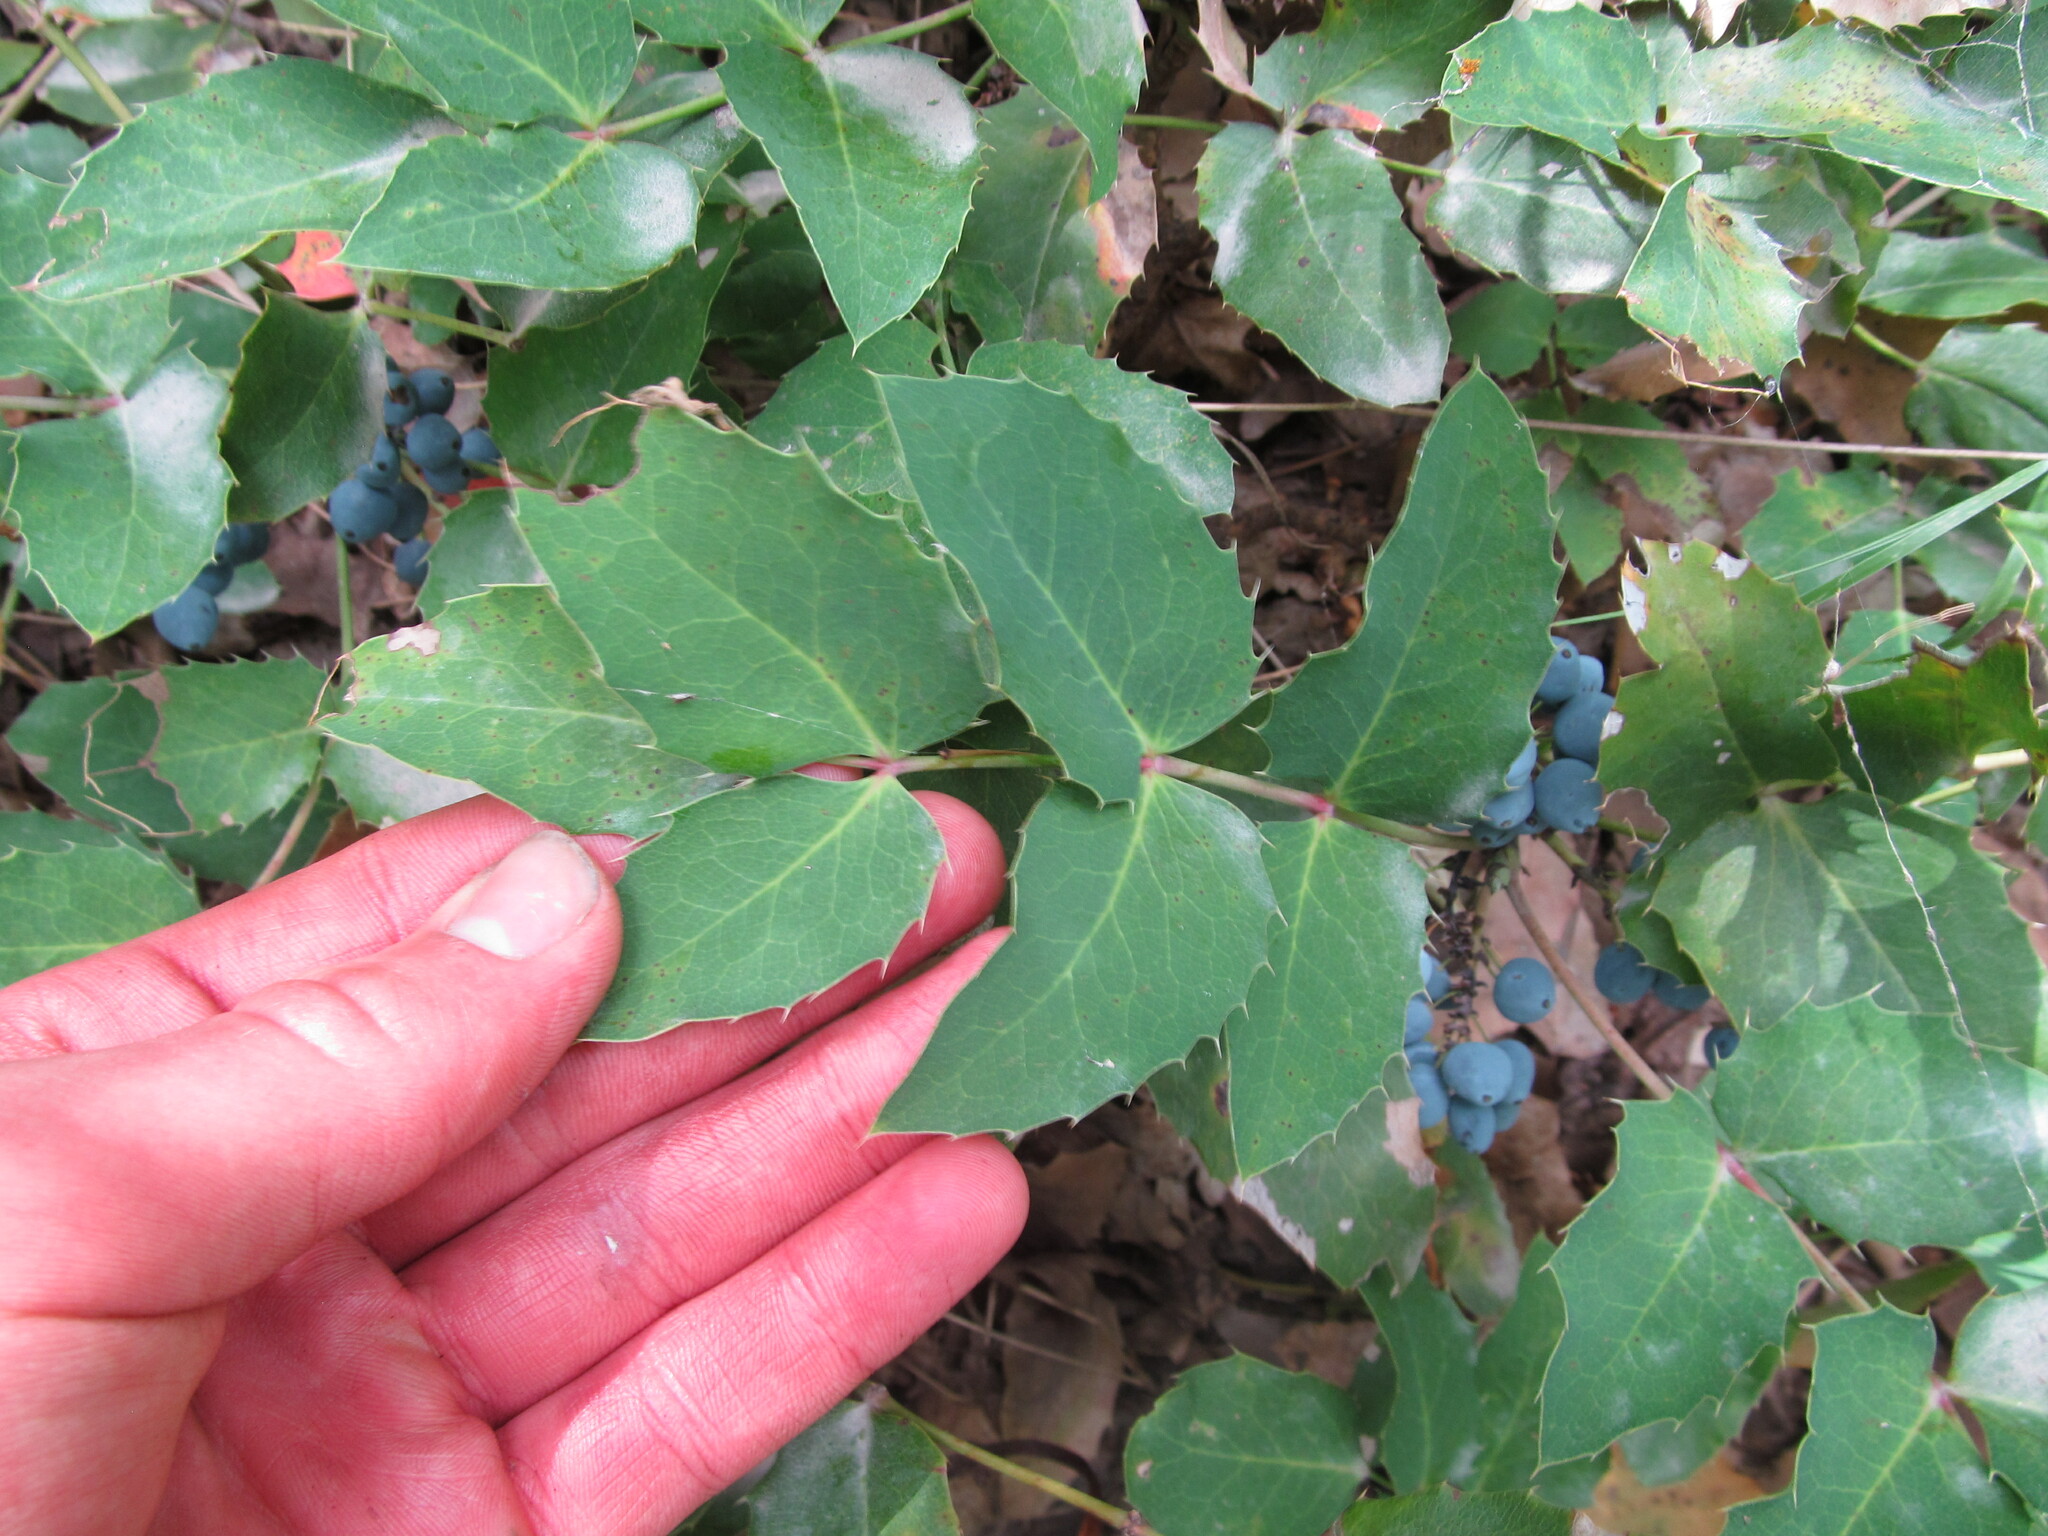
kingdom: Plantae
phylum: Tracheophyta
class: Magnoliopsida
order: Ranunculales
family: Berberidaceae
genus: Mahonia
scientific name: Mahonia repens
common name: Creeping oregon-grape
